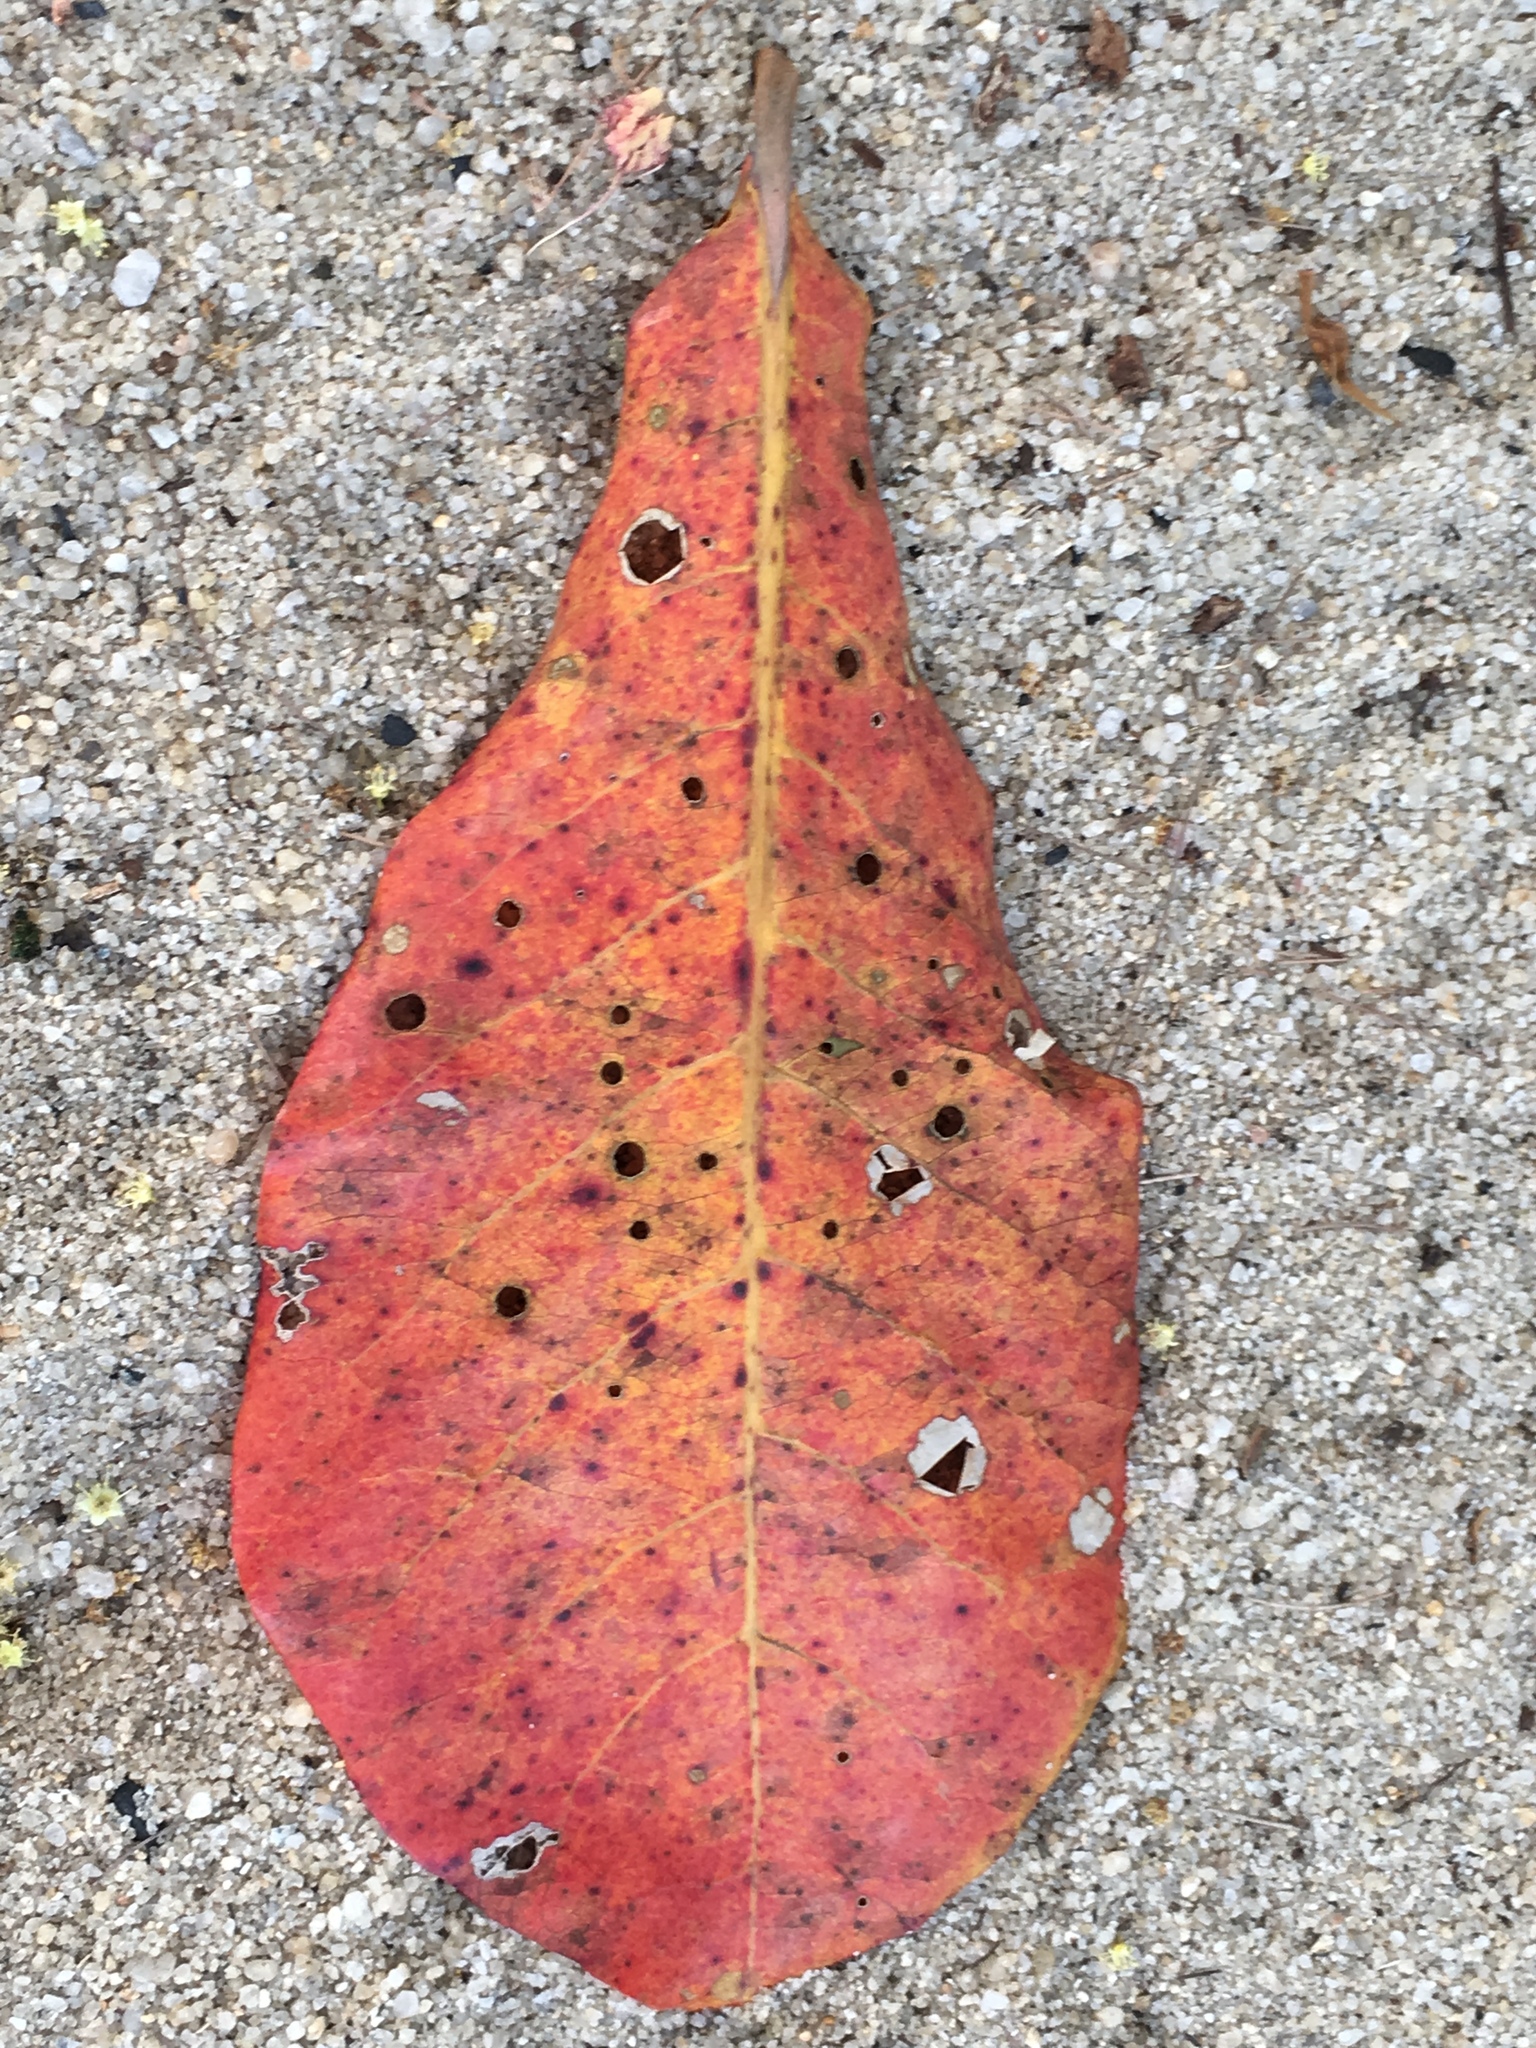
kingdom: Plantae
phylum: Tracheophyta
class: Magnoliopsida
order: Myrtales
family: Combretaceae
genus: Terminalia
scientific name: Terminalia catappa
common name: Tropical almond
